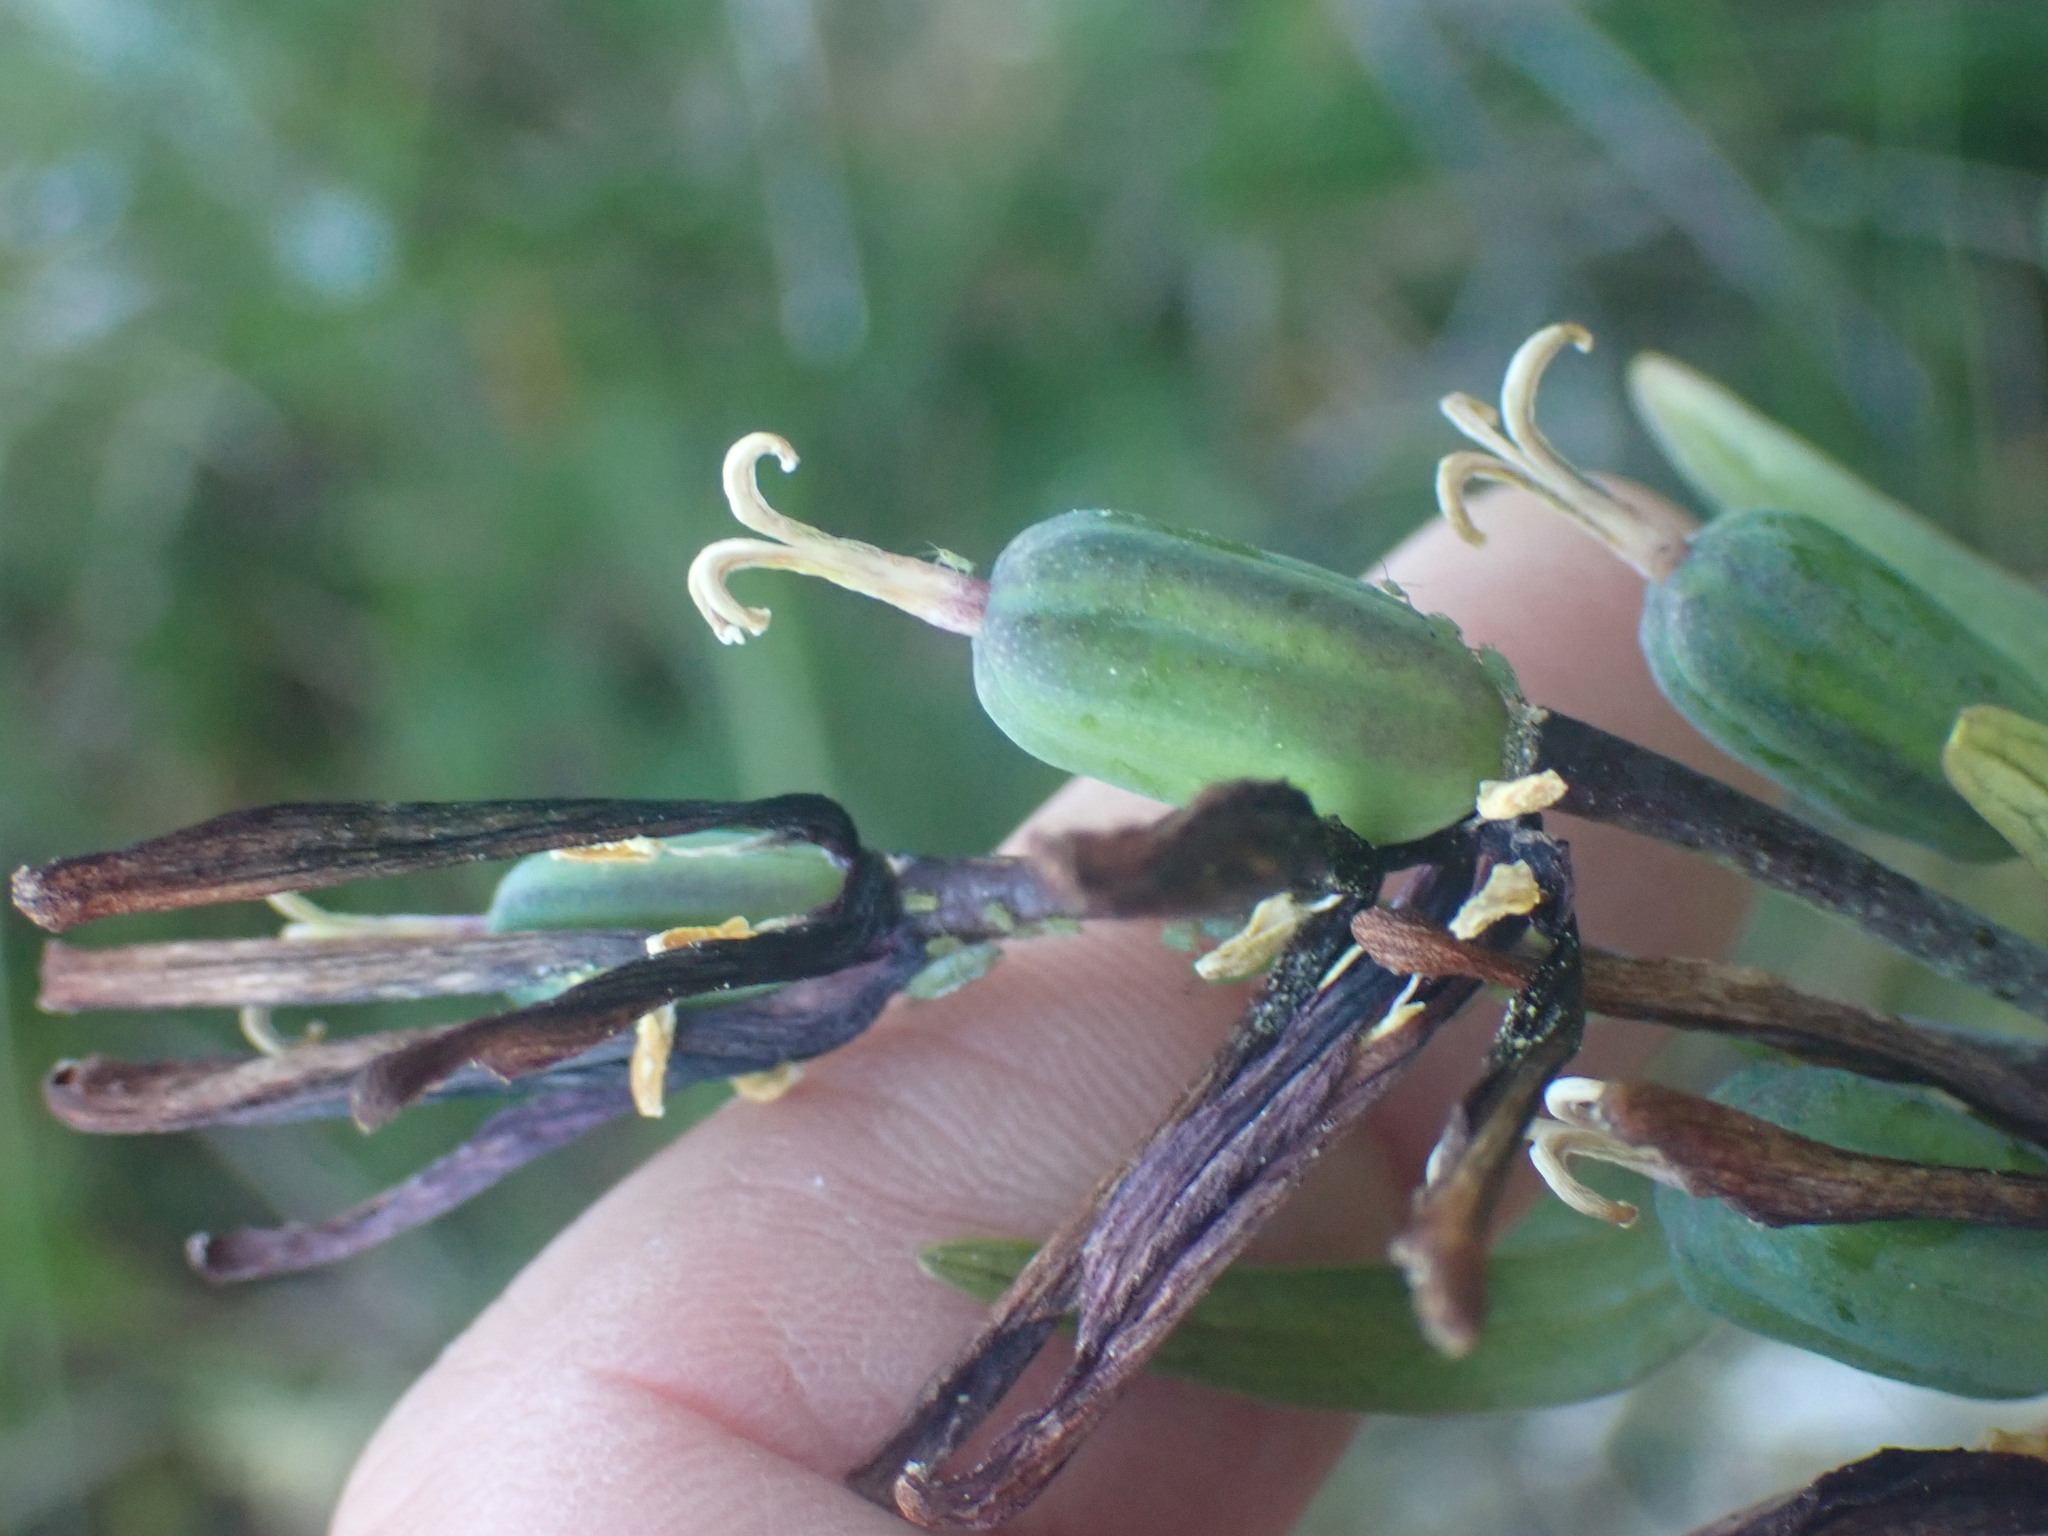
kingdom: Plantae
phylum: Tracheophyta
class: Liliopsida
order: Liliales
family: Liliaceae
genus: Fritillaria
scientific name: Fritillaria camschatcensis
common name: Kamchatka fritillary
